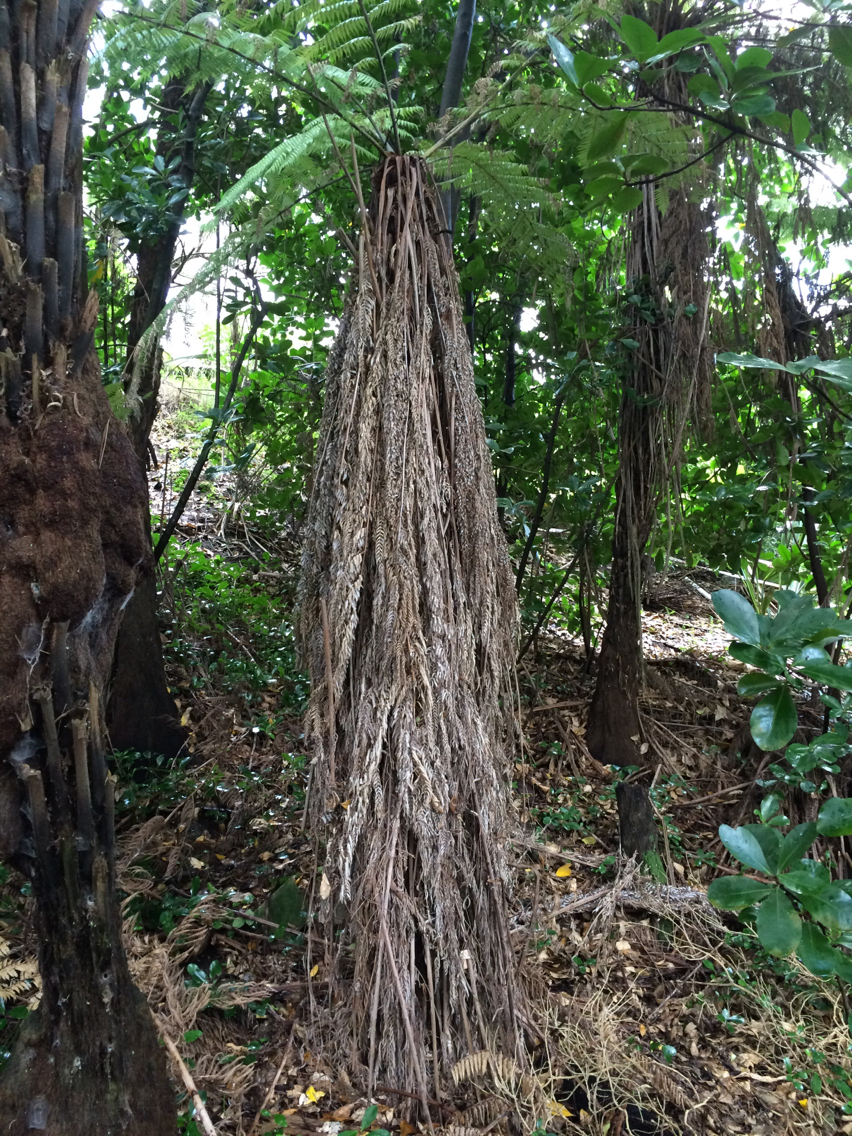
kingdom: Plantae
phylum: Tracheophyta
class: Polypodiopsida
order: Cyatheales
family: Cyatheaceae
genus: Alsophila
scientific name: Alsophila dealbata
